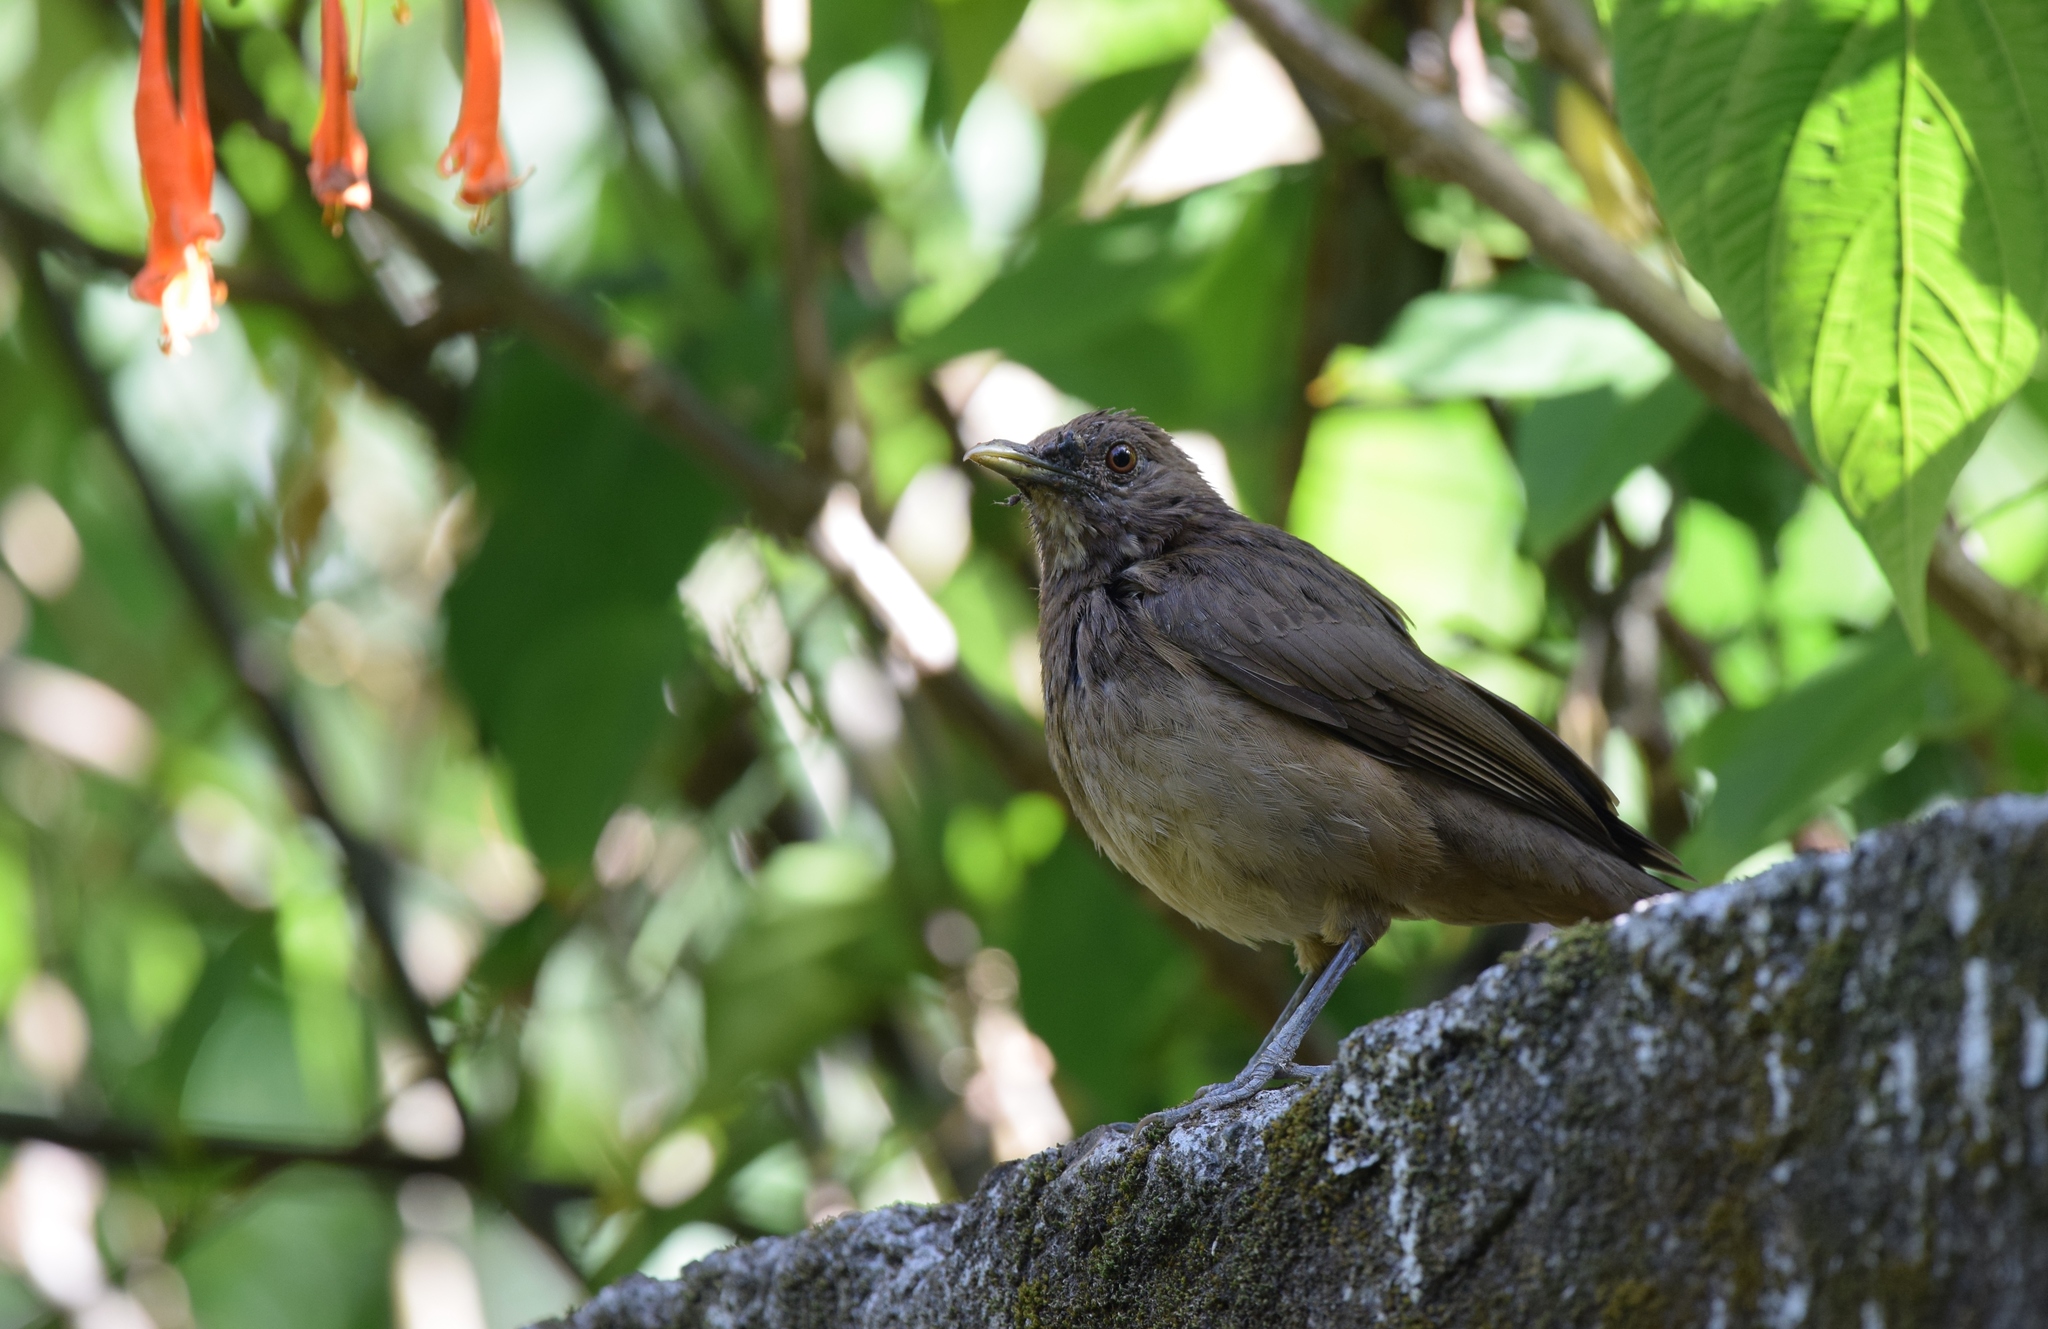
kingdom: Animalia
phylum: Chordata
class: Aves
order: Passeriformes
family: Turdidae
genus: Turdus
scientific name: Turdus grayi
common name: Clay-colored thrush
